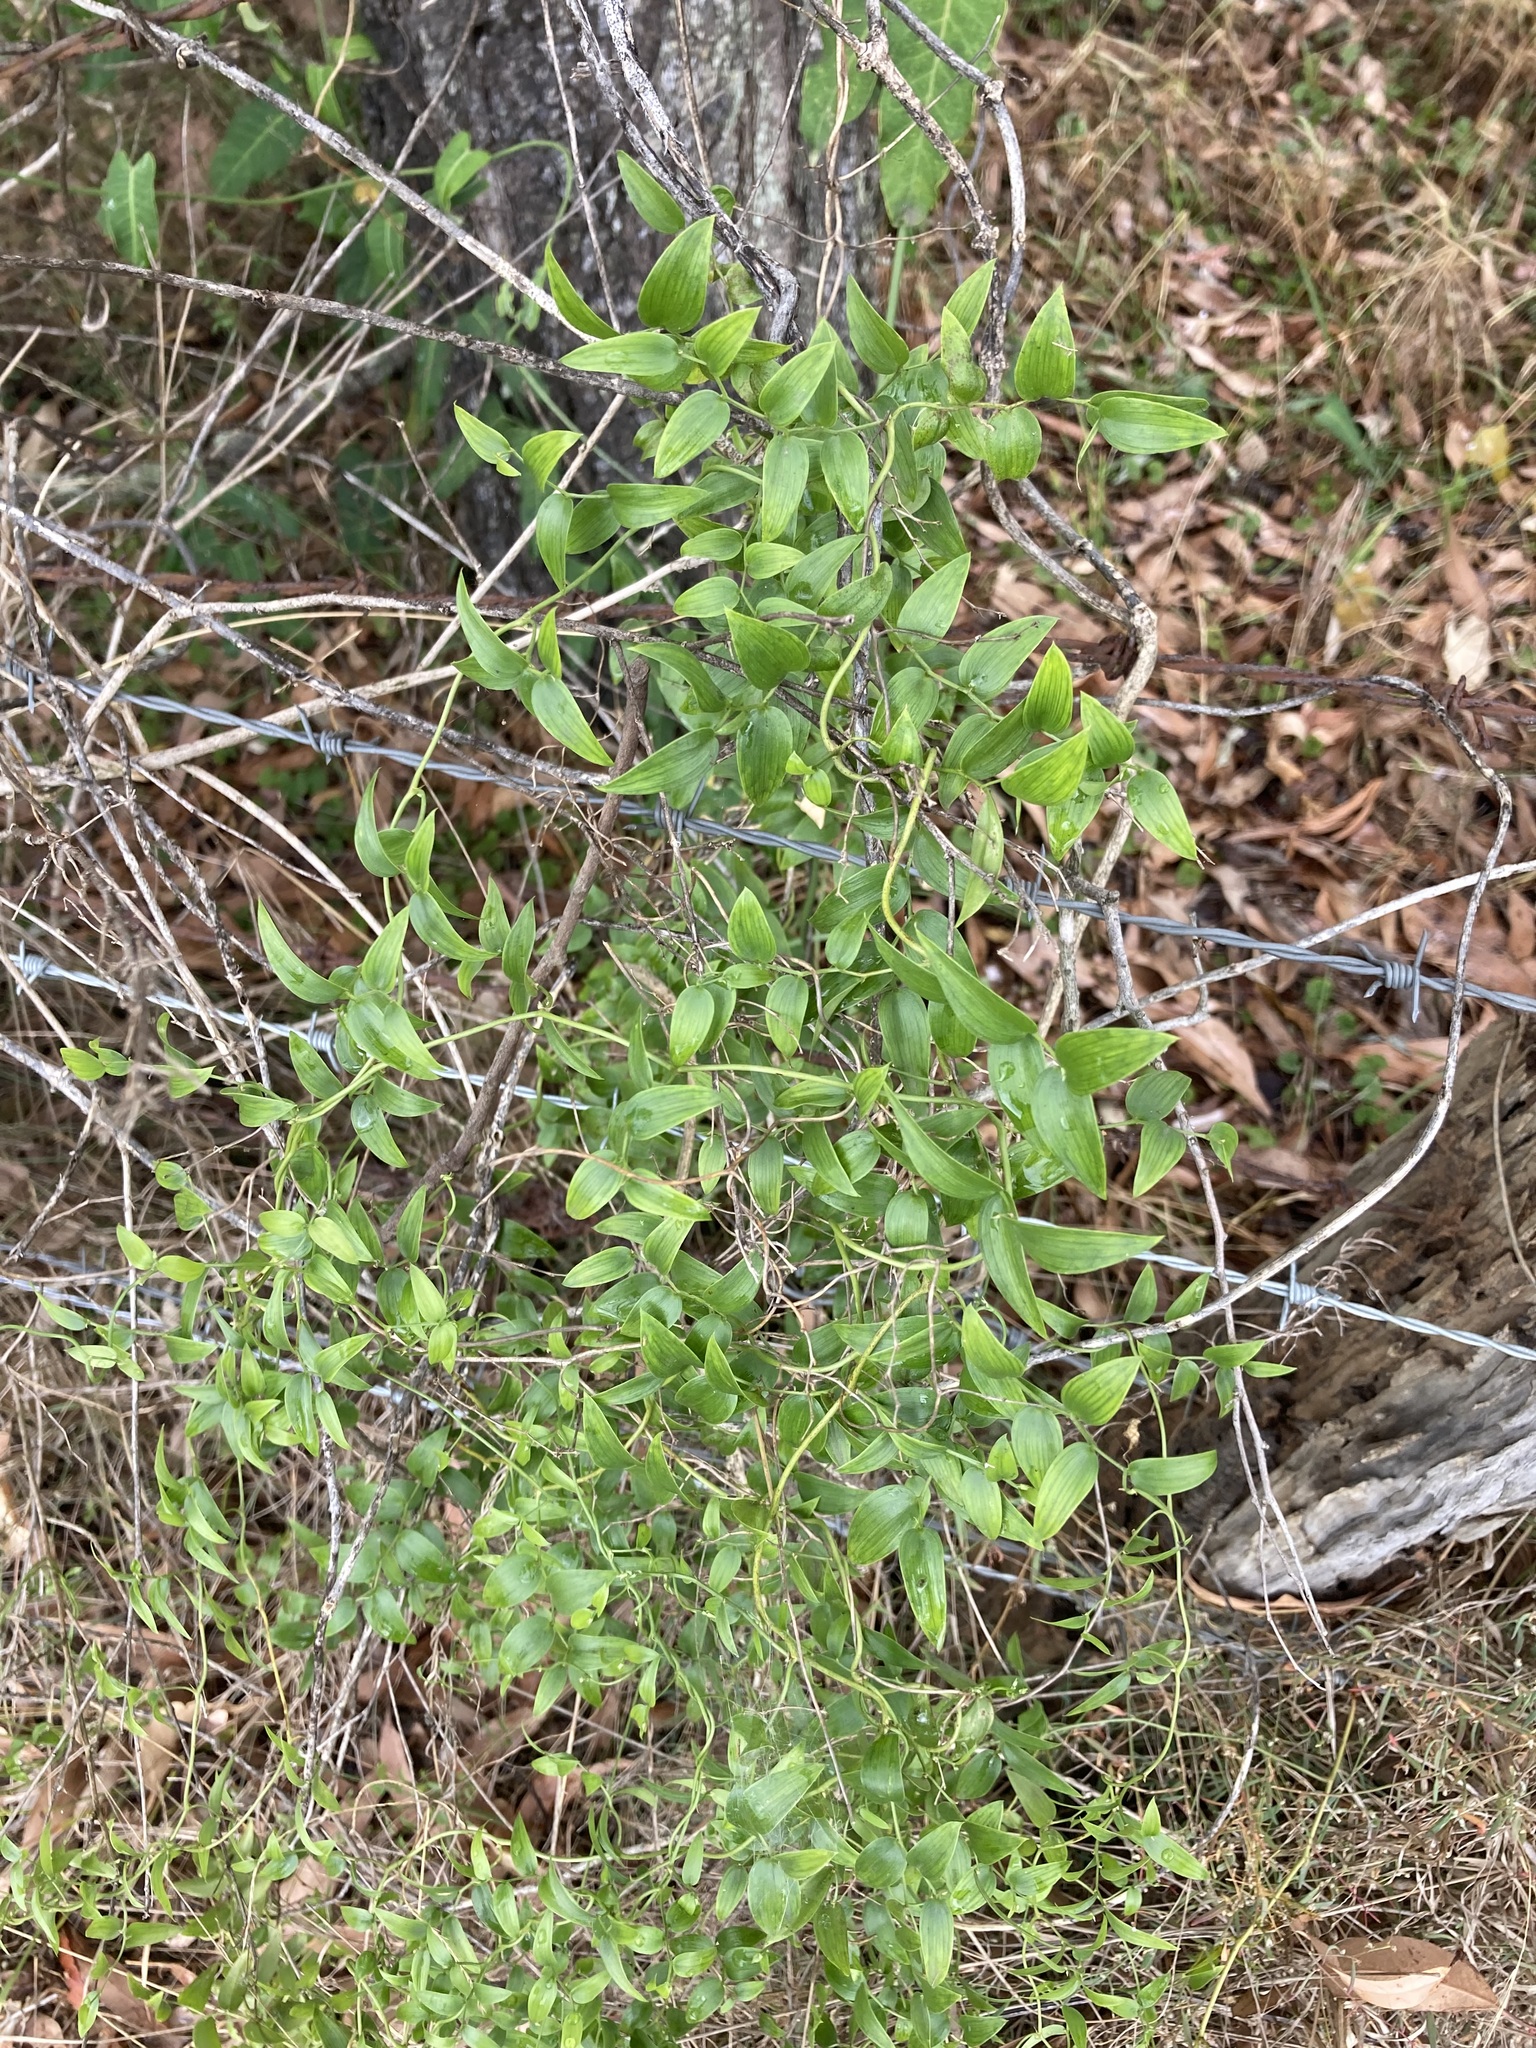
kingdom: Plantae
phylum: Tracheophyta
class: Liliopsida
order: Asparagales
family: Asparagaceae
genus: Asparagus
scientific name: Asparagus asparagoides
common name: African asparagus fern
